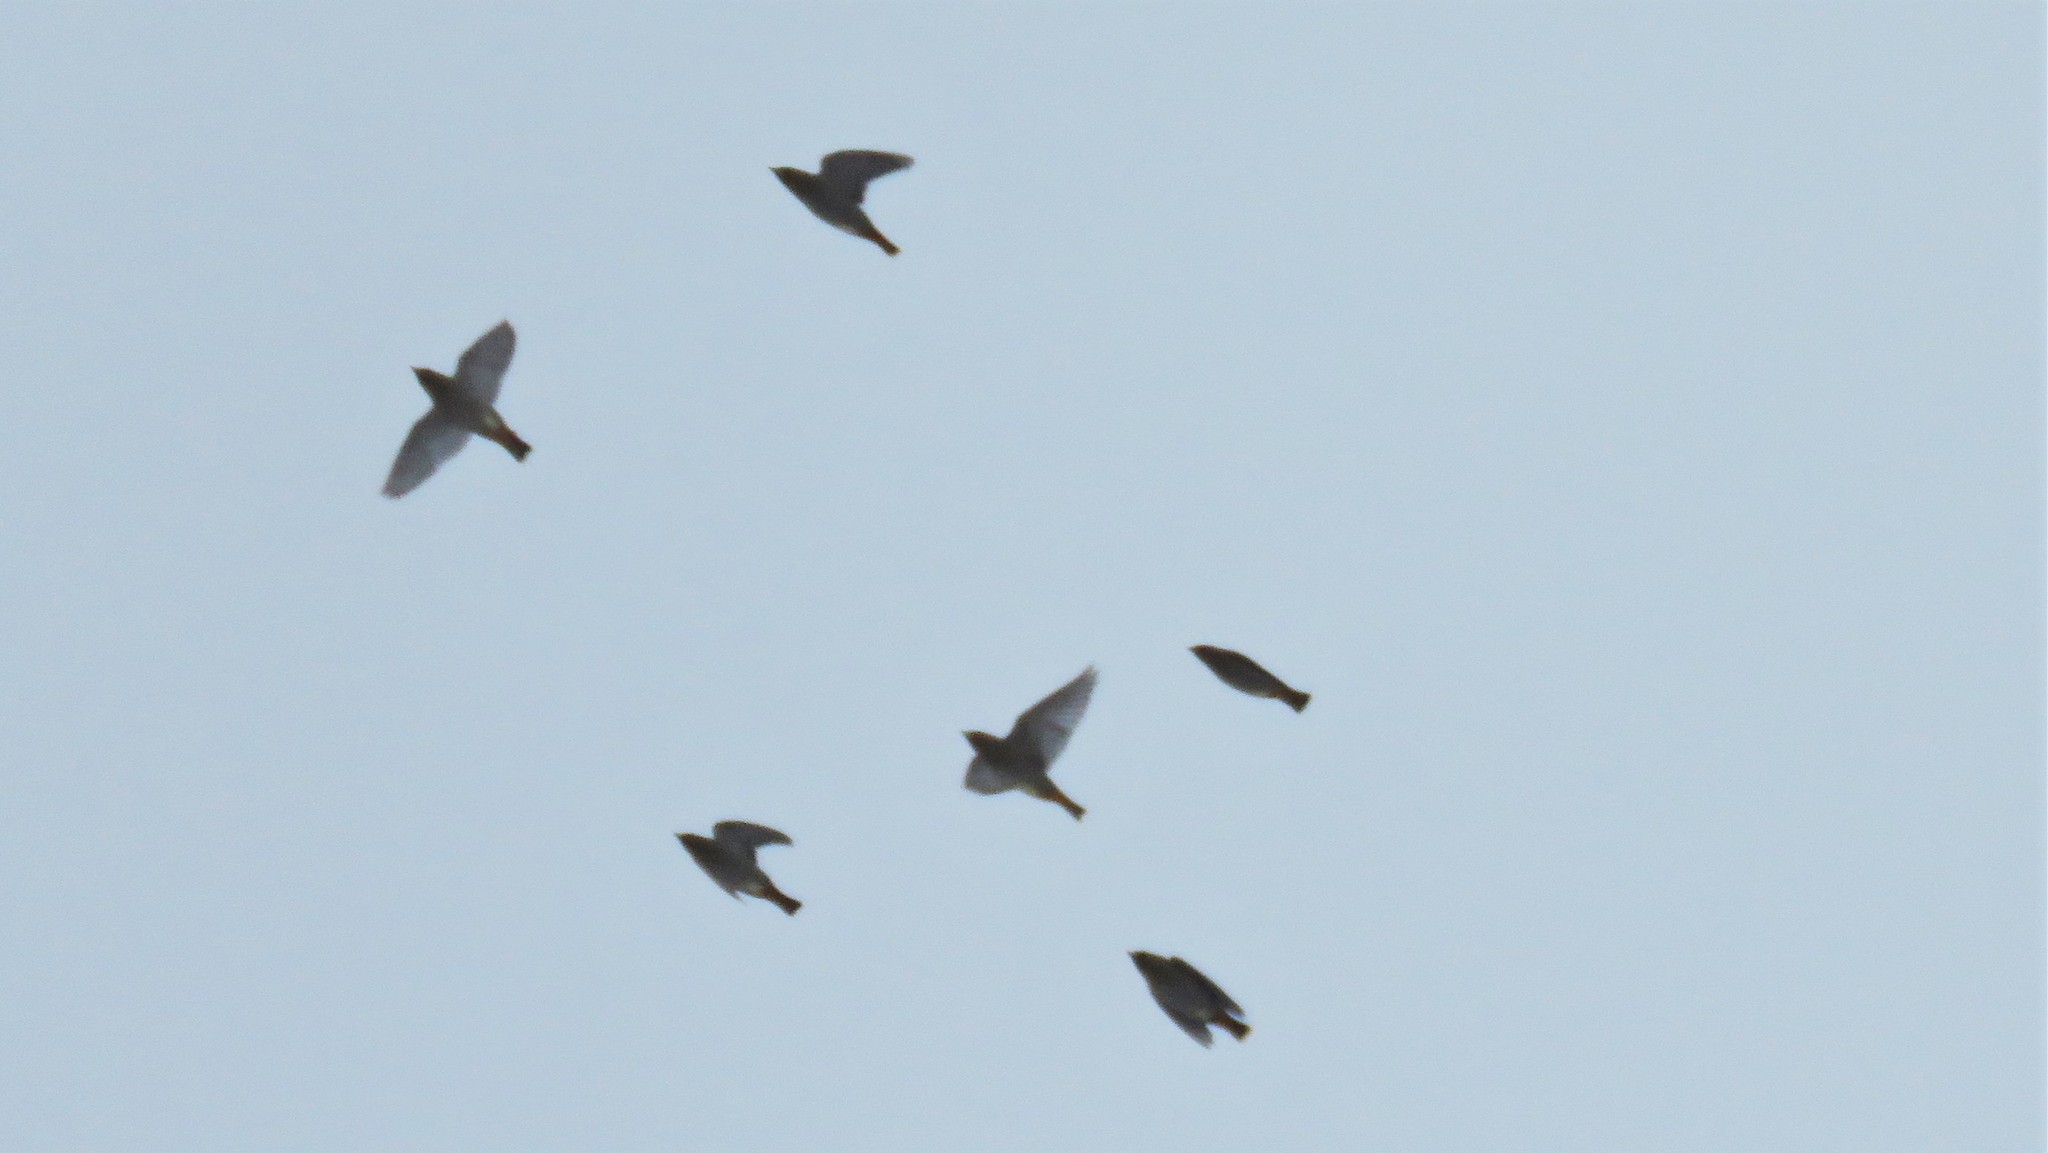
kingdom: Animalia
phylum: Chordata
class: Aves
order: Passeriformes
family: Bombycillidae
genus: Bombycilla
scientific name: Bombycilla garrulus
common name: Bohemian waxwing
